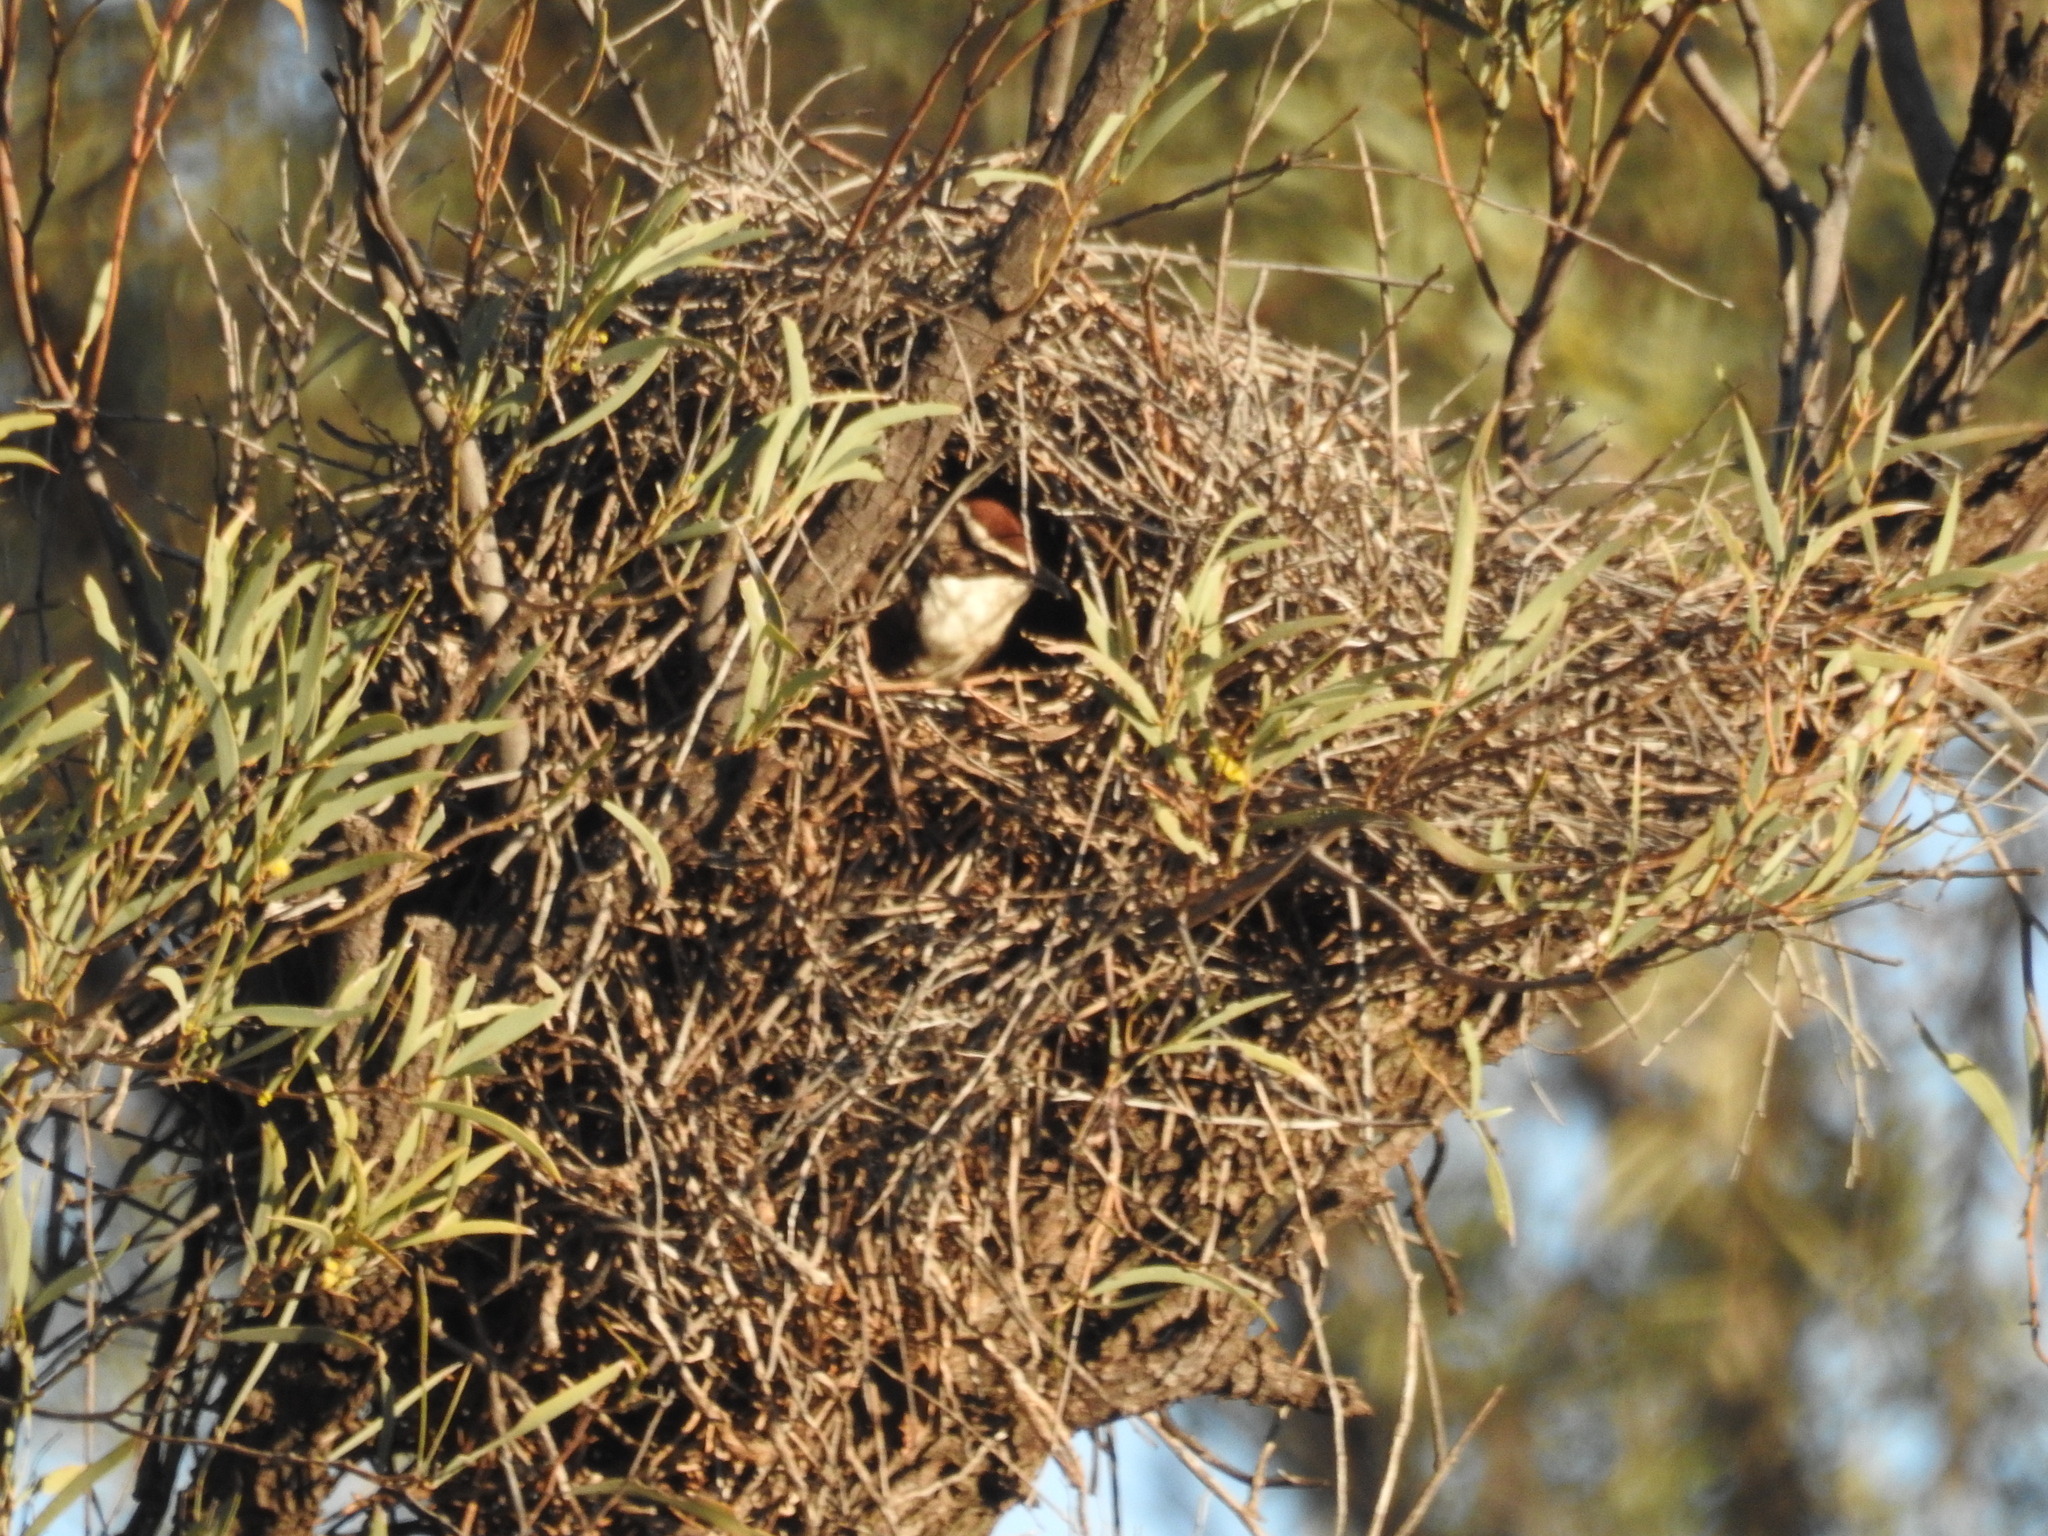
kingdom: Animalia
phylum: Chordata
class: Aves
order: Passeriformes
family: Pomatostomidae
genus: Pomatostomus
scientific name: Pomatostomus ruficeps
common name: Chestnut-crowned babbler
